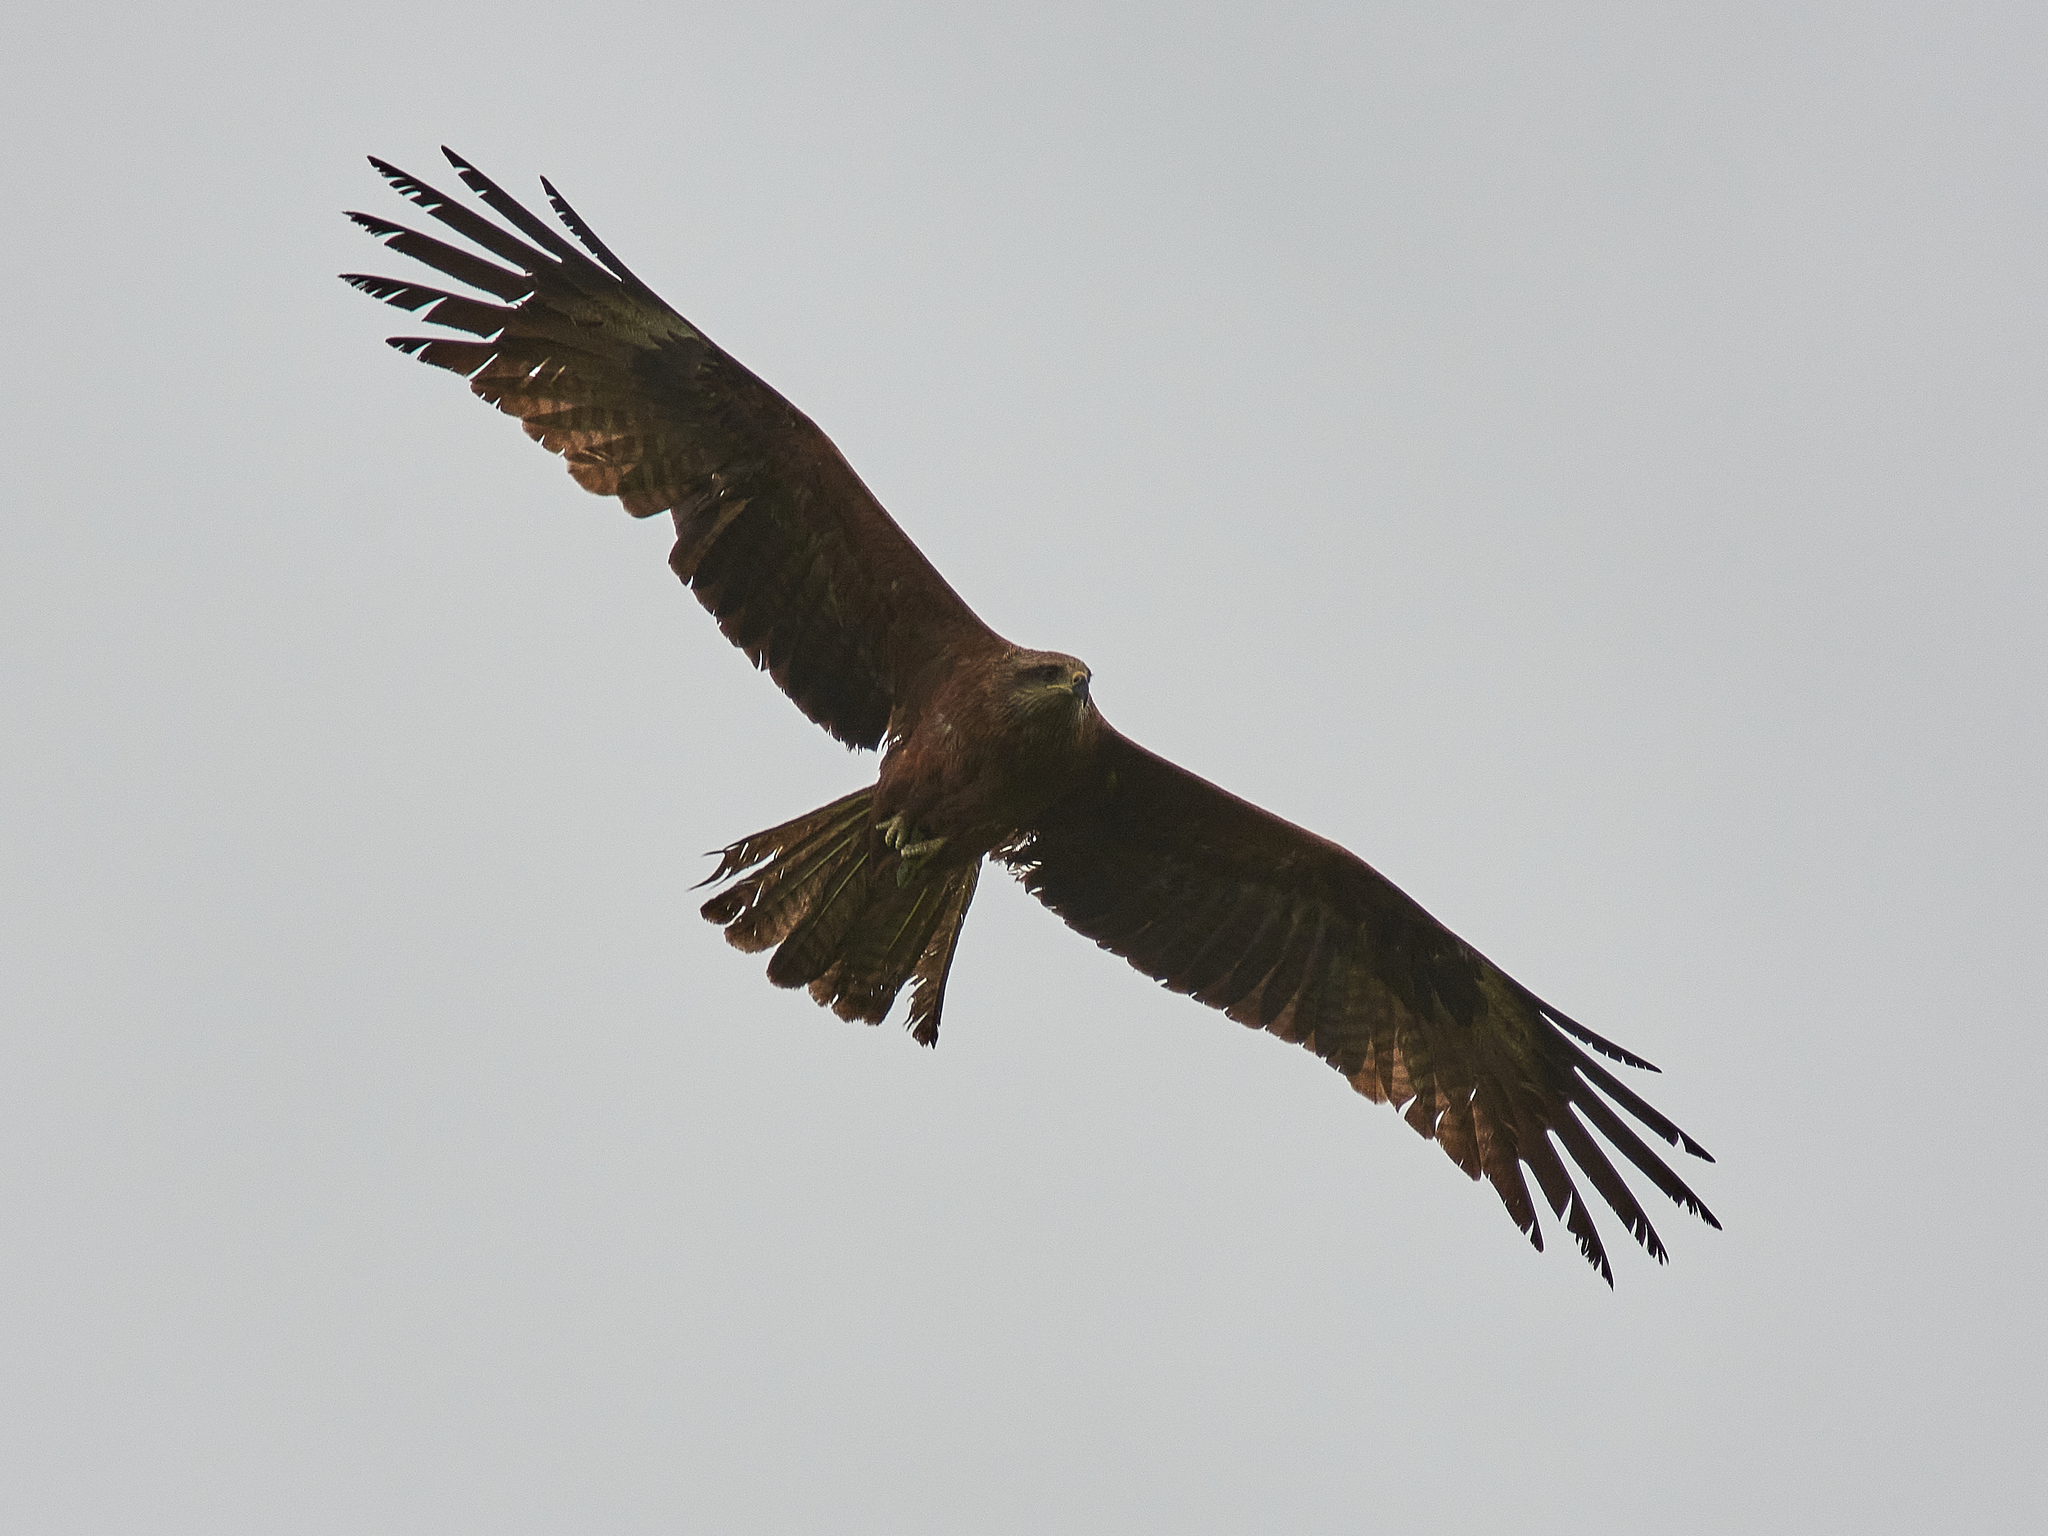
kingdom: Animalia
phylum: Chordata
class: Aves
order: Accipitriformes
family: Accipitridae
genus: Milvus
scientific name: Milvus migrans
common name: Black kite
